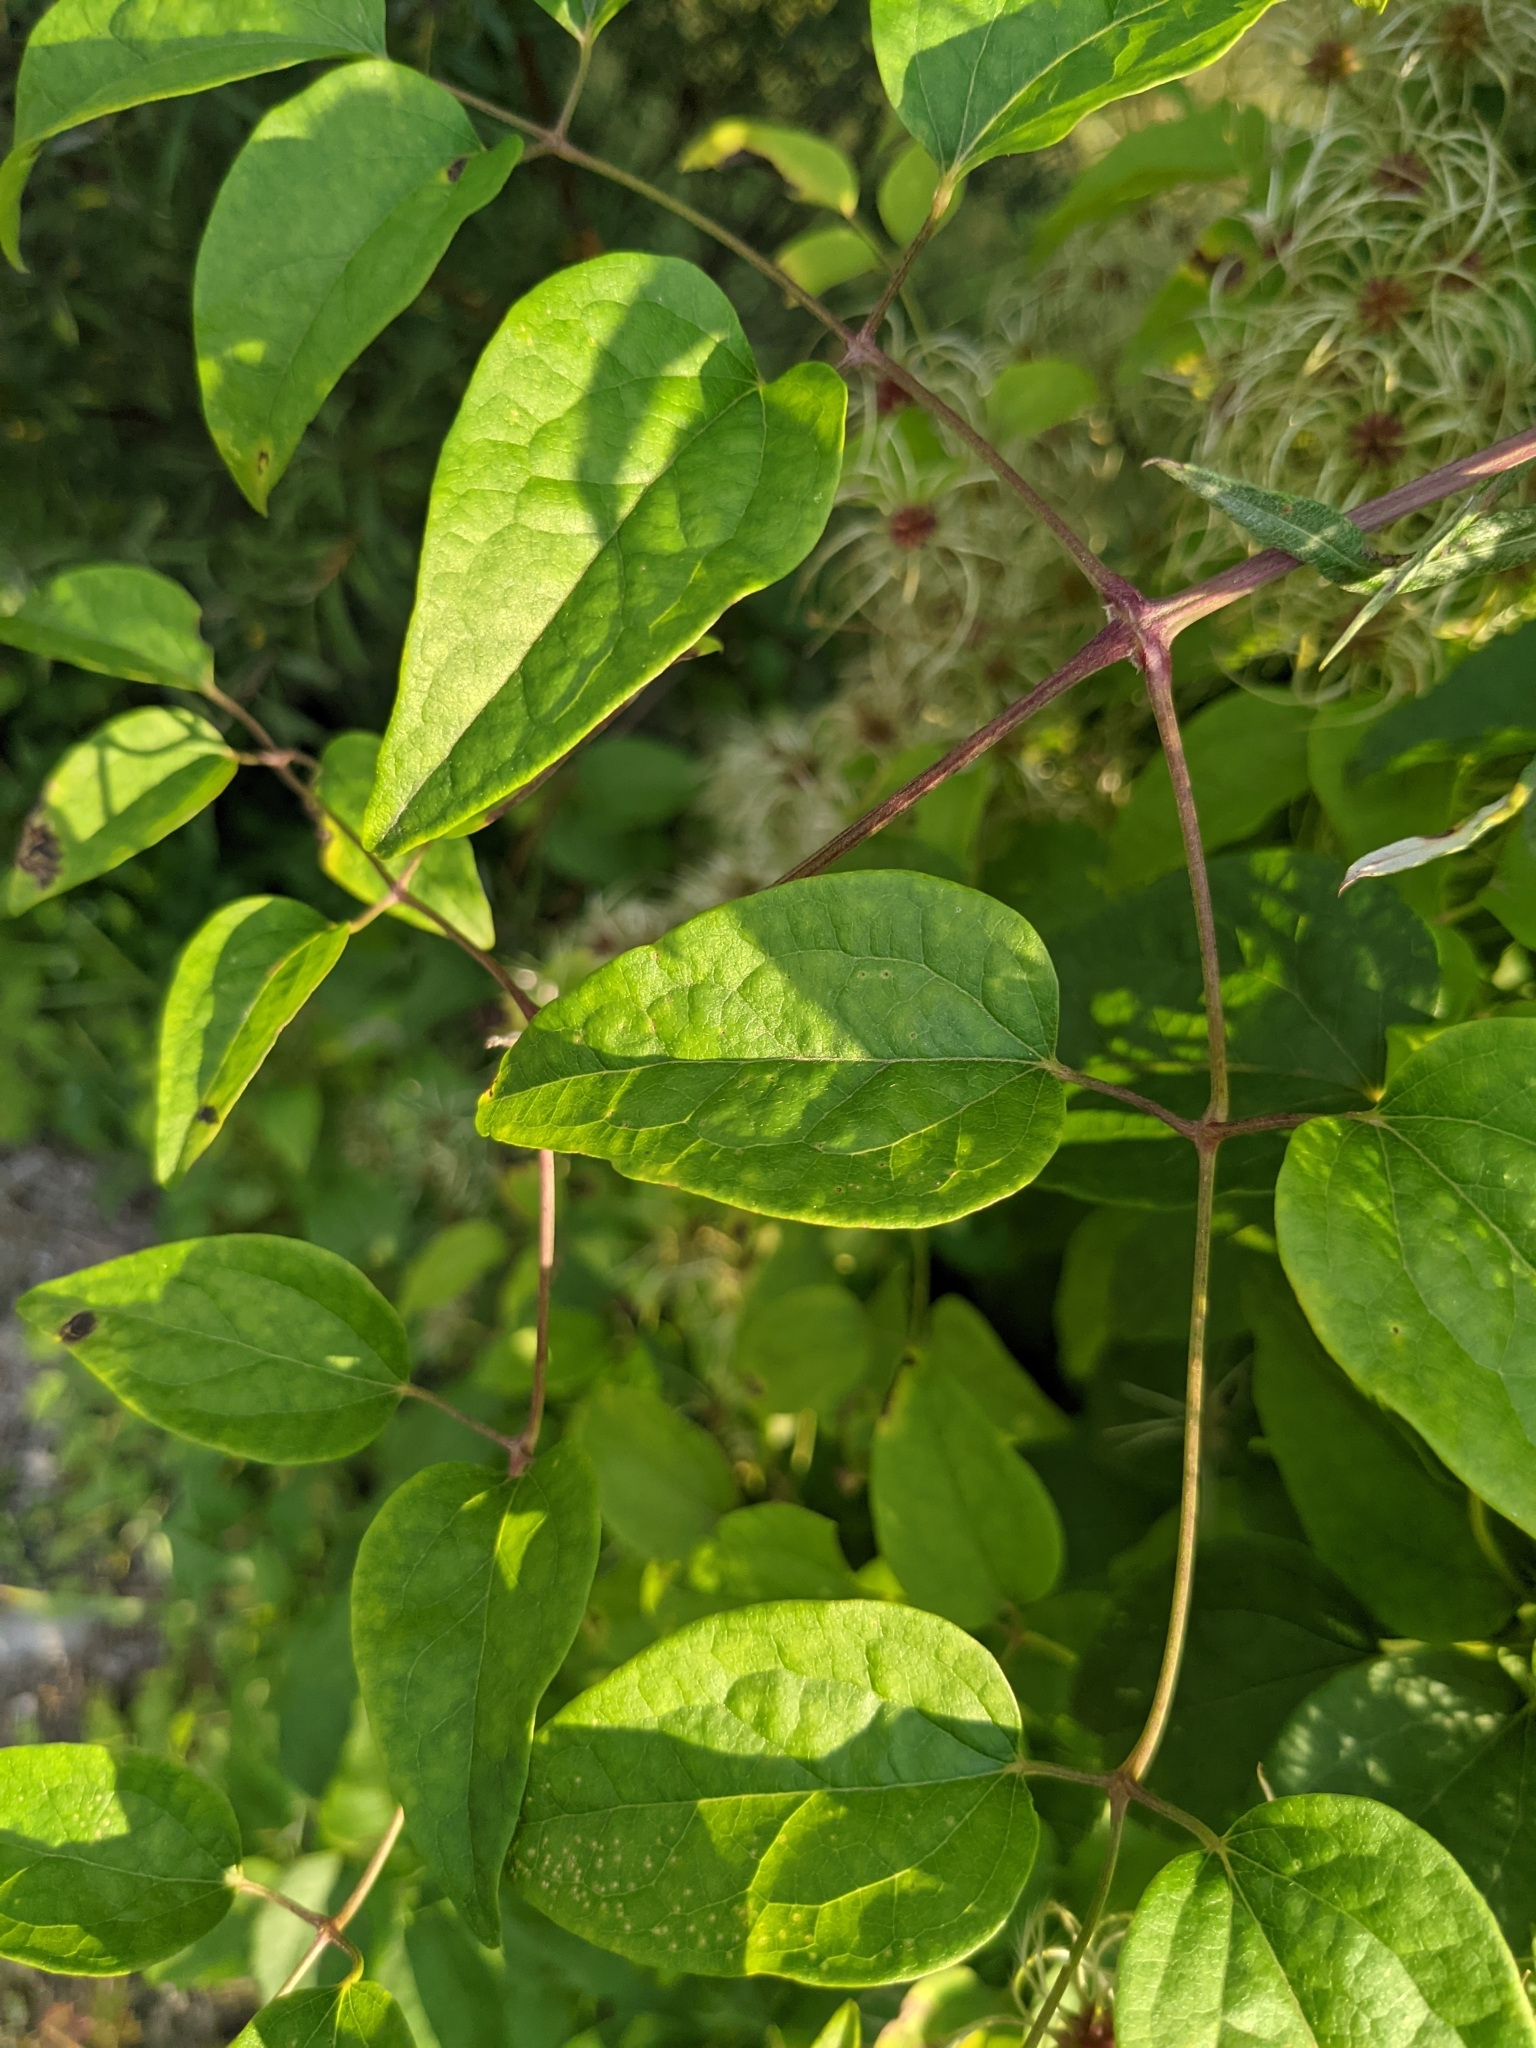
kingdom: Plantae
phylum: Tracheophyta
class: Magnoliopsida
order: Ranunculales
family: Ranunculaceae
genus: Clematis
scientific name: Clematis vitalba
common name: Evergreen clematis
